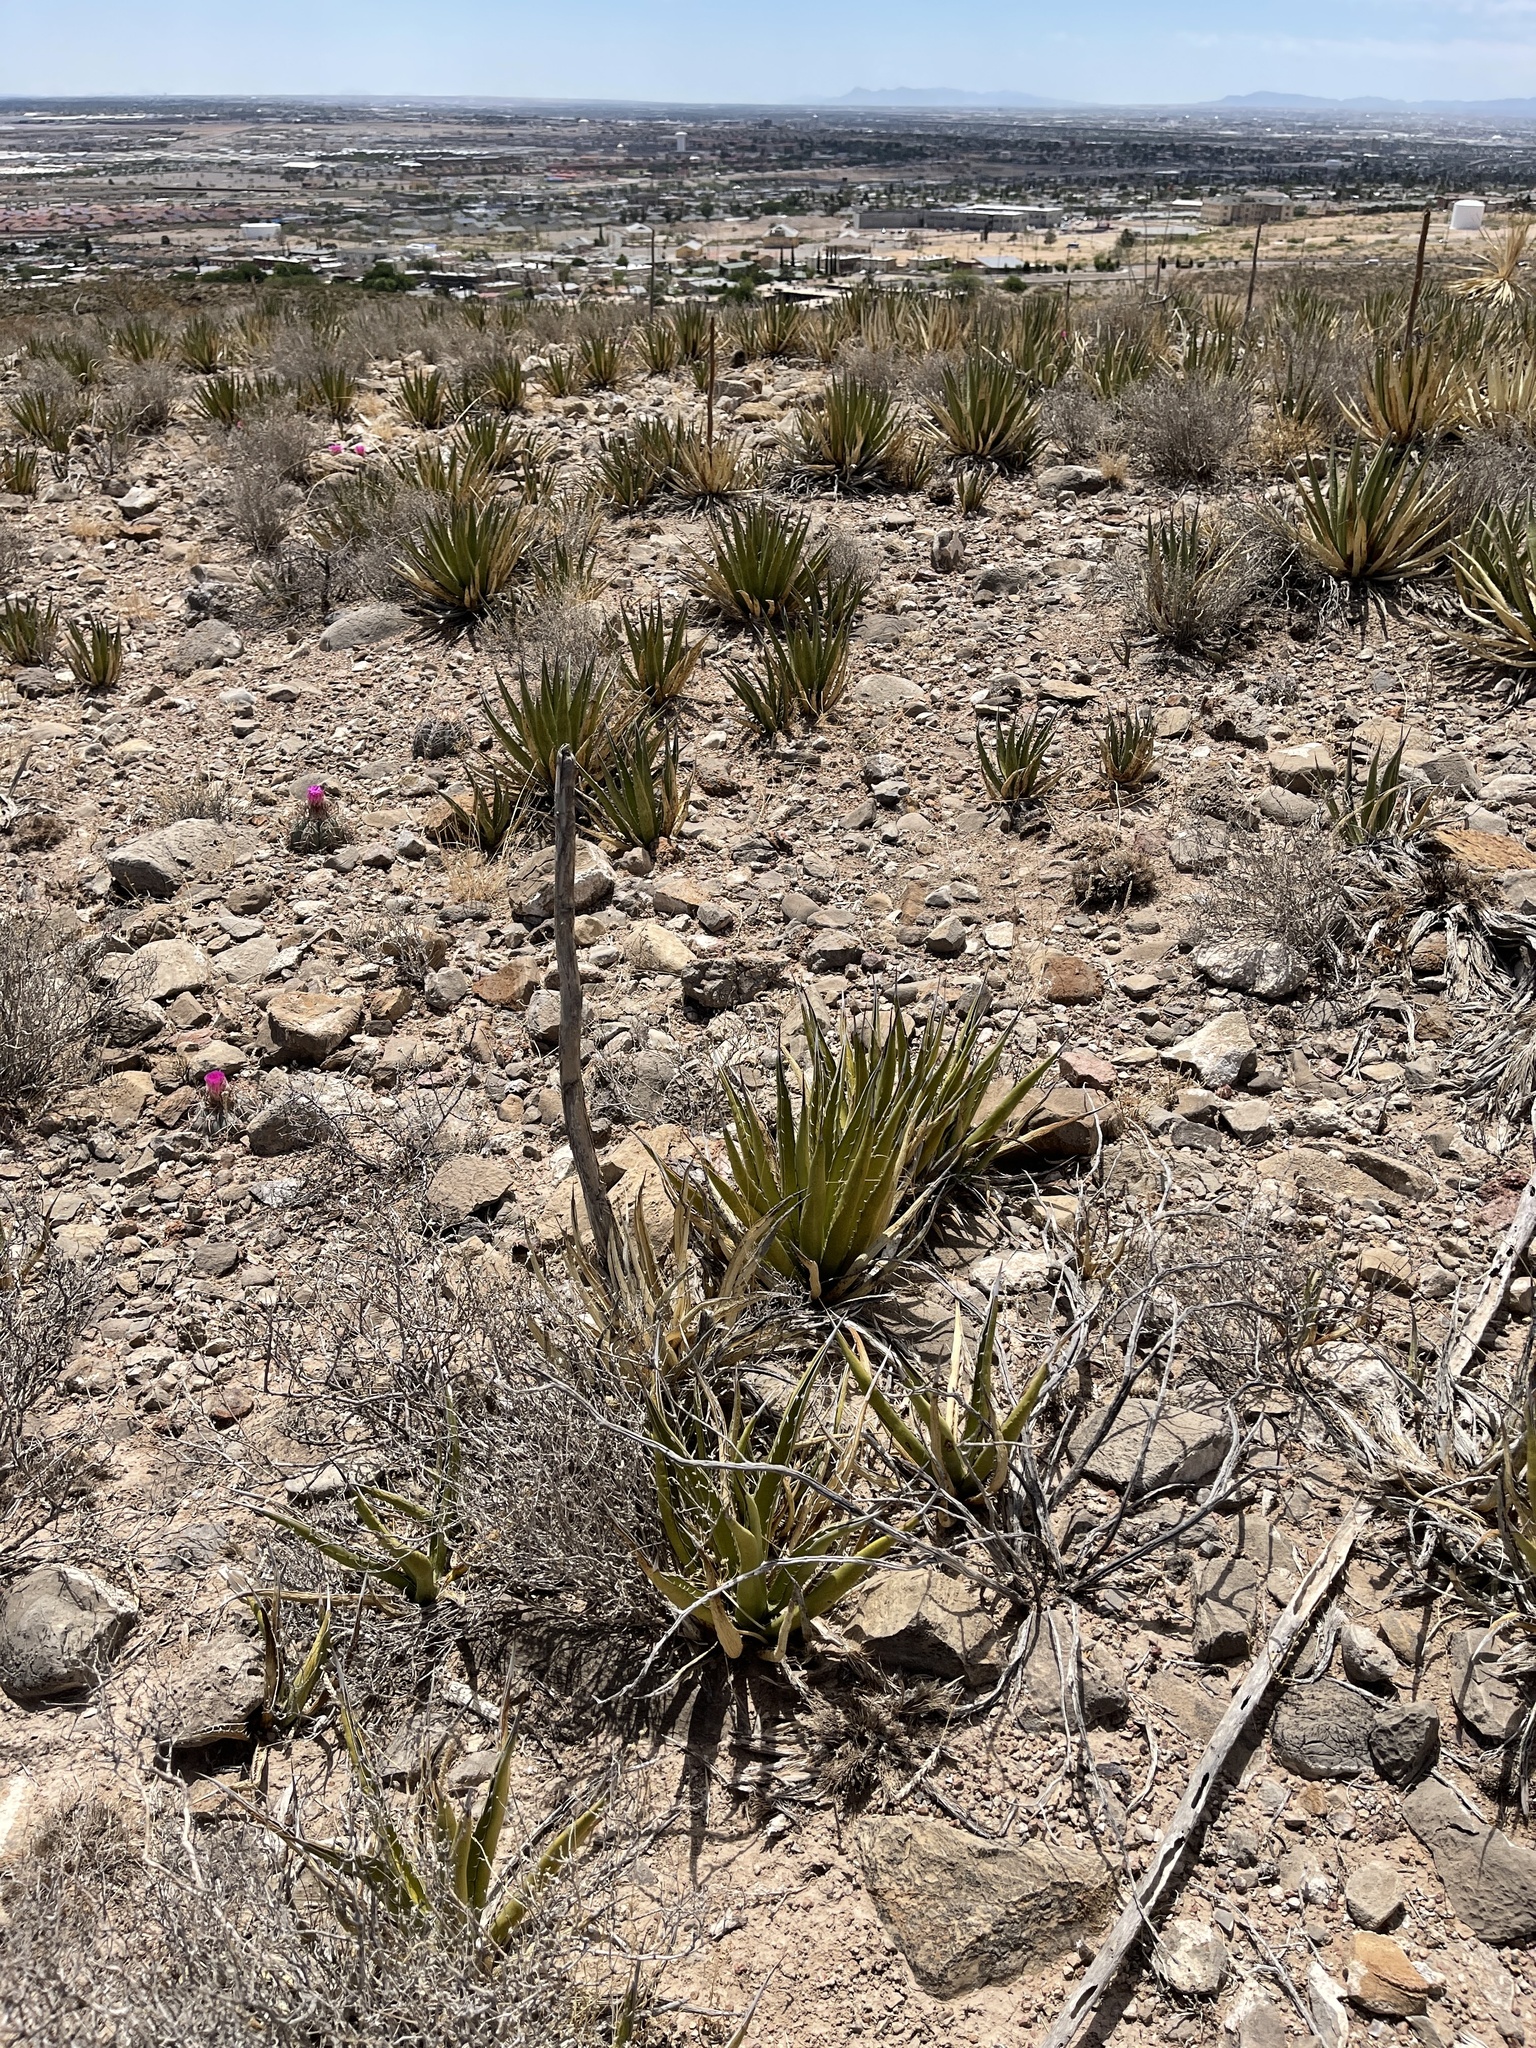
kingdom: Plantae
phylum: Tracheophyta
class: Liliopsida
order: Asparagales
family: Asparagaceae
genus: Agave
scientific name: Agave lechuguilla
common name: Lecheguilla agave
